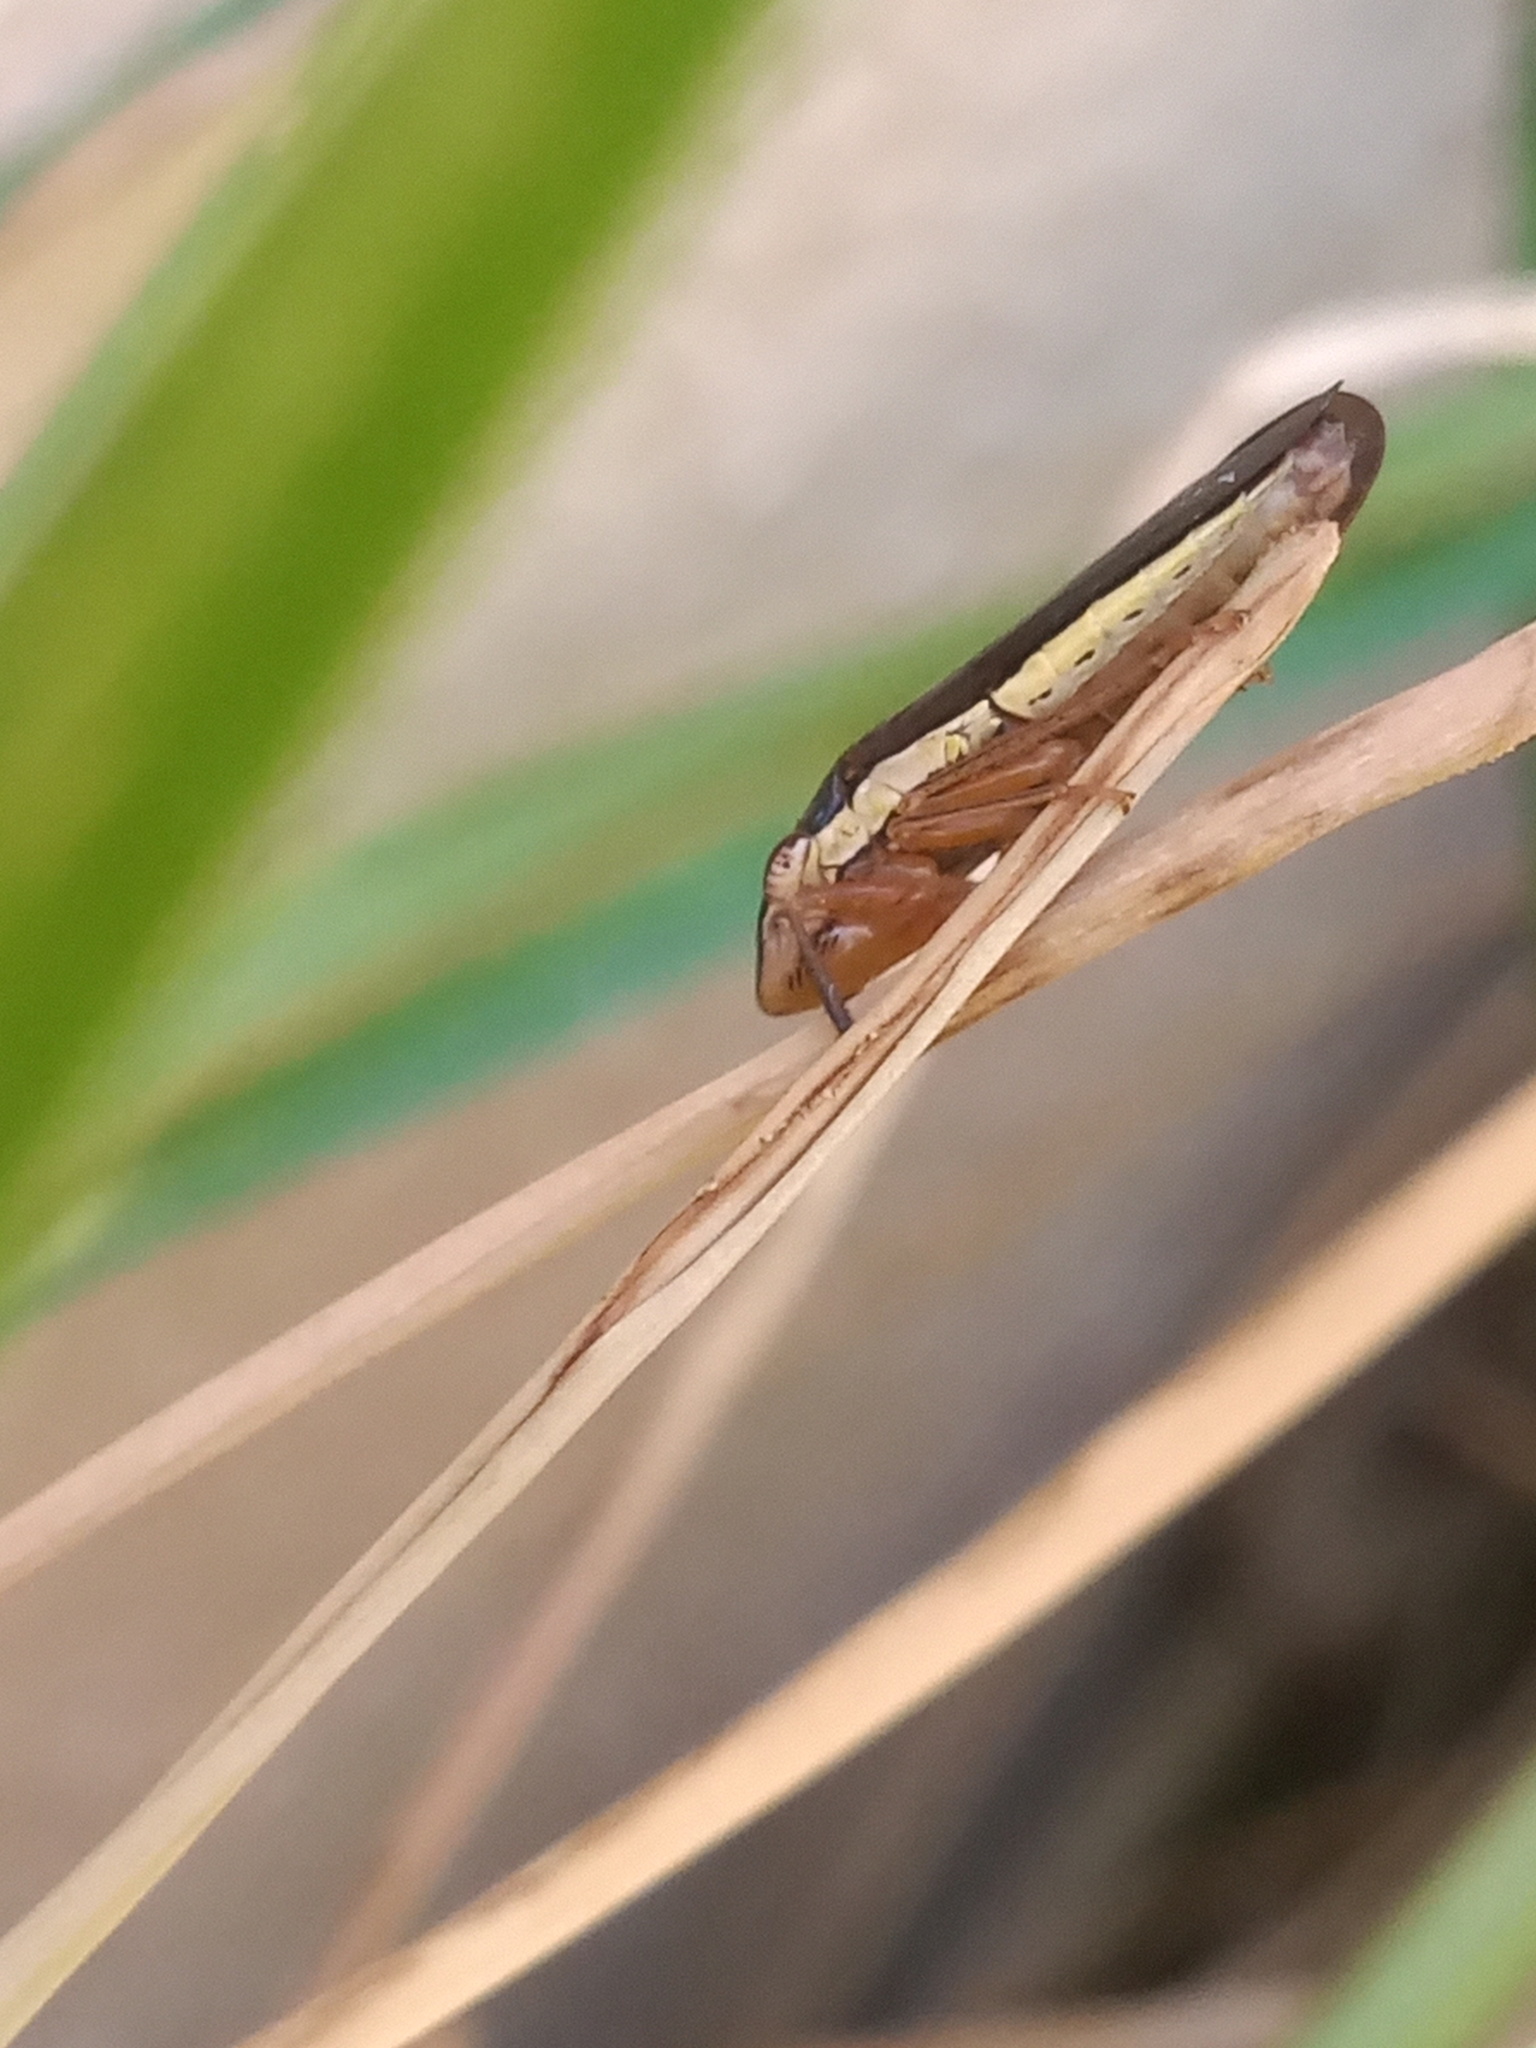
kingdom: Animalia
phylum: Arthropoda
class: Insecta
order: Hemiptera
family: Cicadellidae
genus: Homalodisca
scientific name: Homalodisca insolita
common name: Johnson grass sharpshooter
